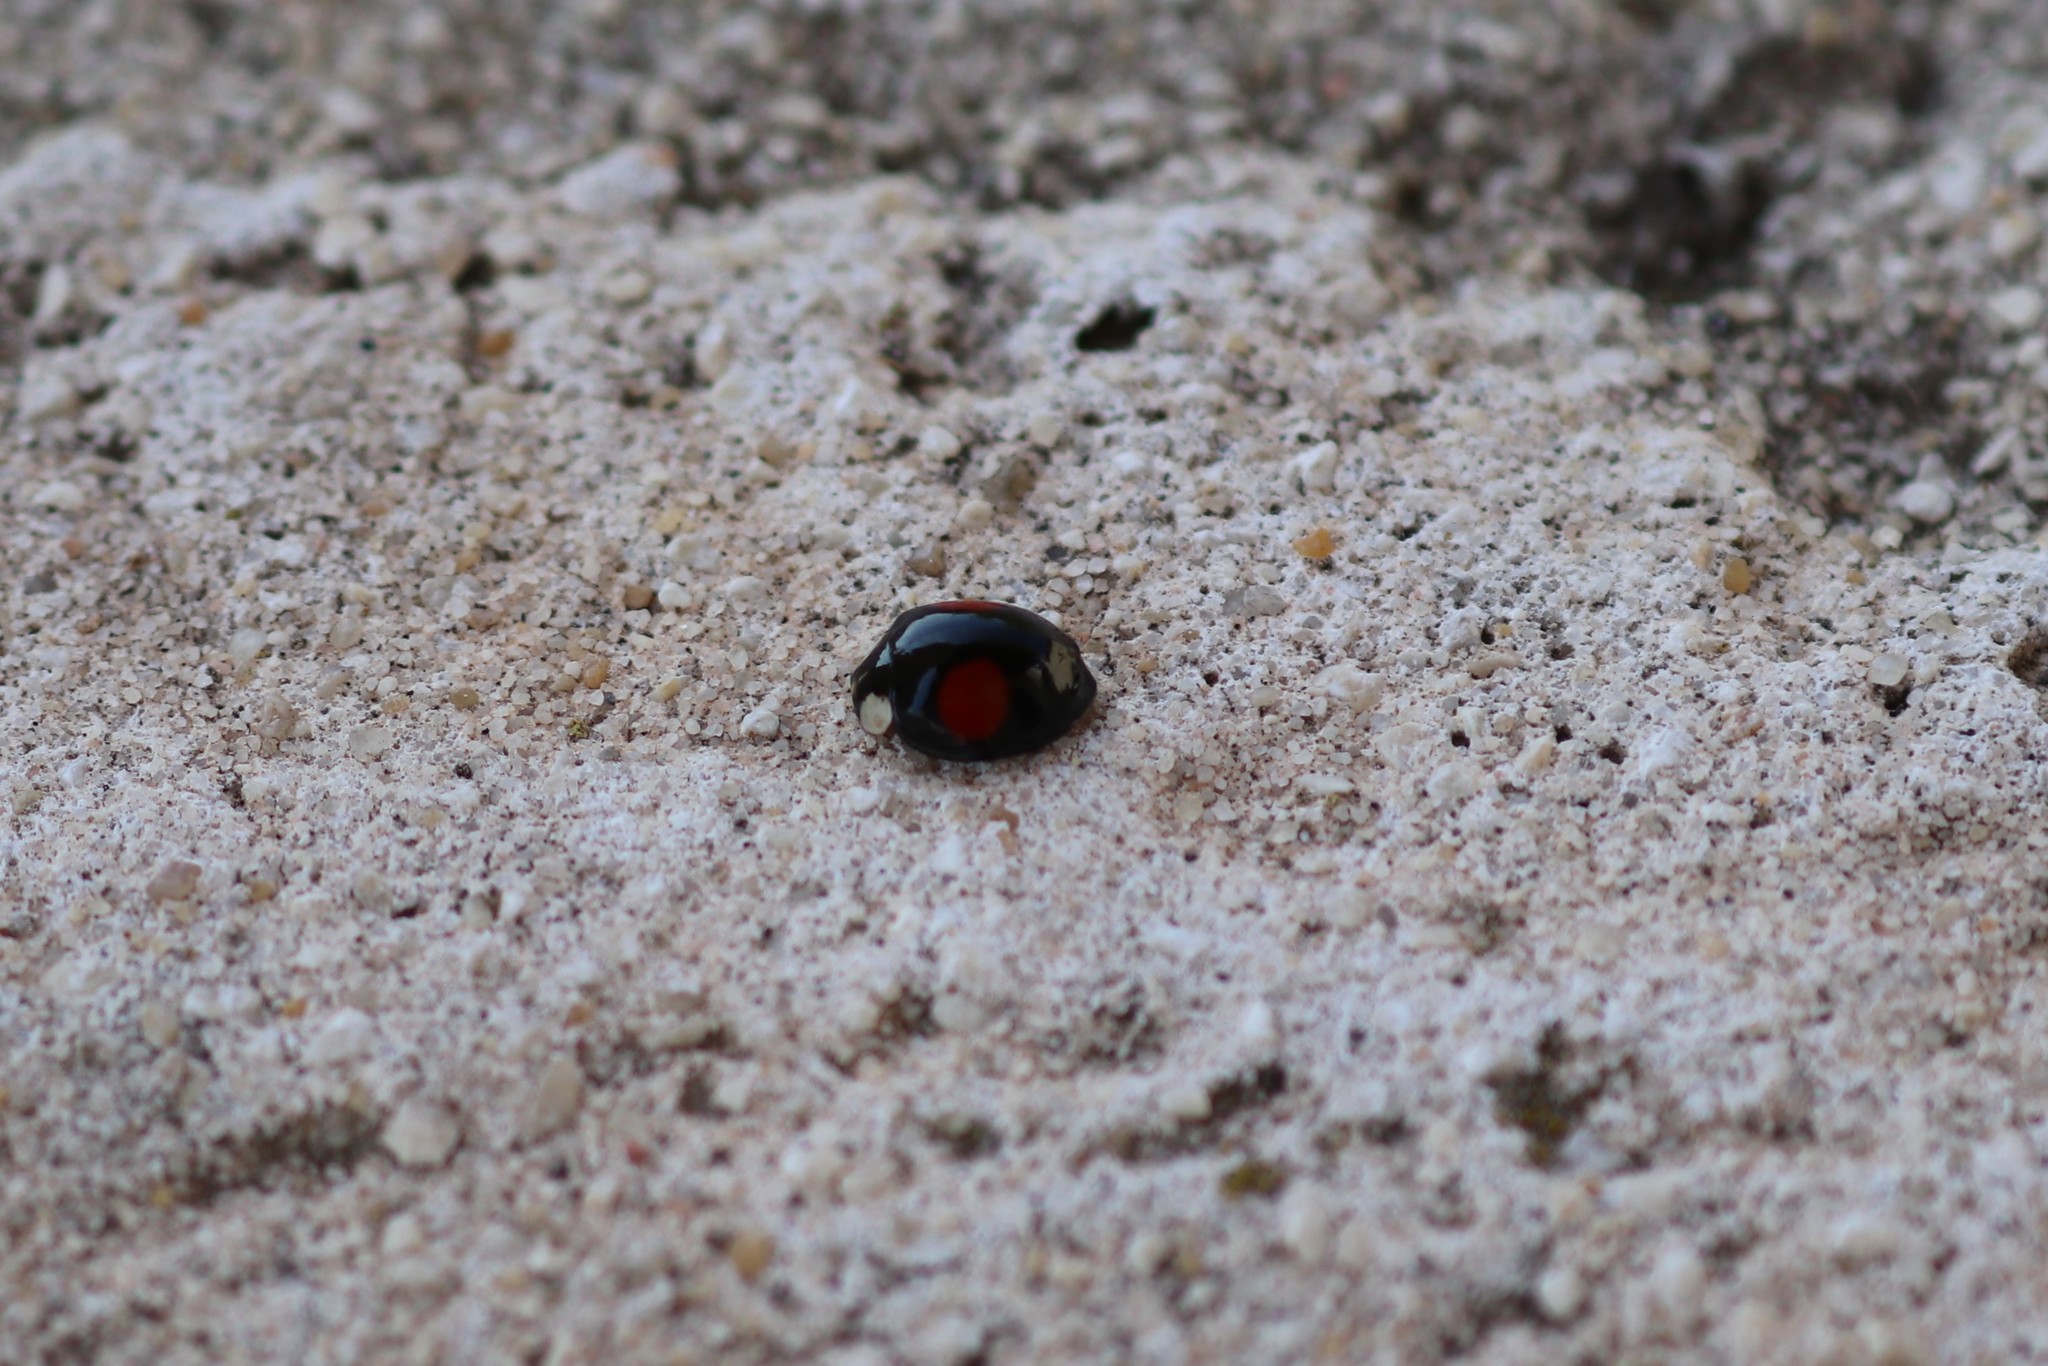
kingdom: Animalia
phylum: Arthropoda
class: Insecta
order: Coleoptera
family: Coccinellidae
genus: Harmonia
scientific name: Harmonia axyridis
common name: Harlequin ladybird
